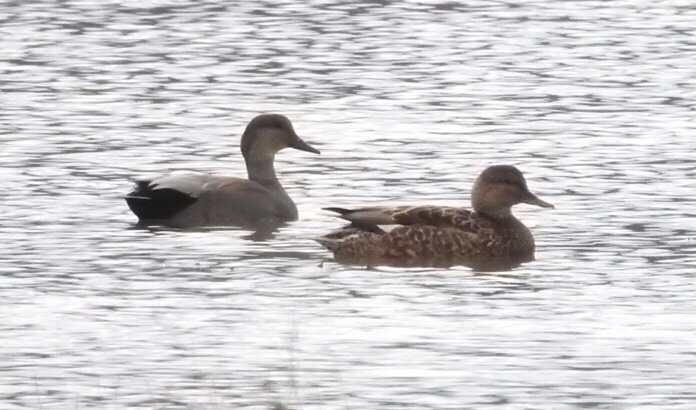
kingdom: Animalia
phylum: Chordata
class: Aves
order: Anseriformes
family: Anatidae
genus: Mareca
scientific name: Mareca strepera
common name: Gadwall
